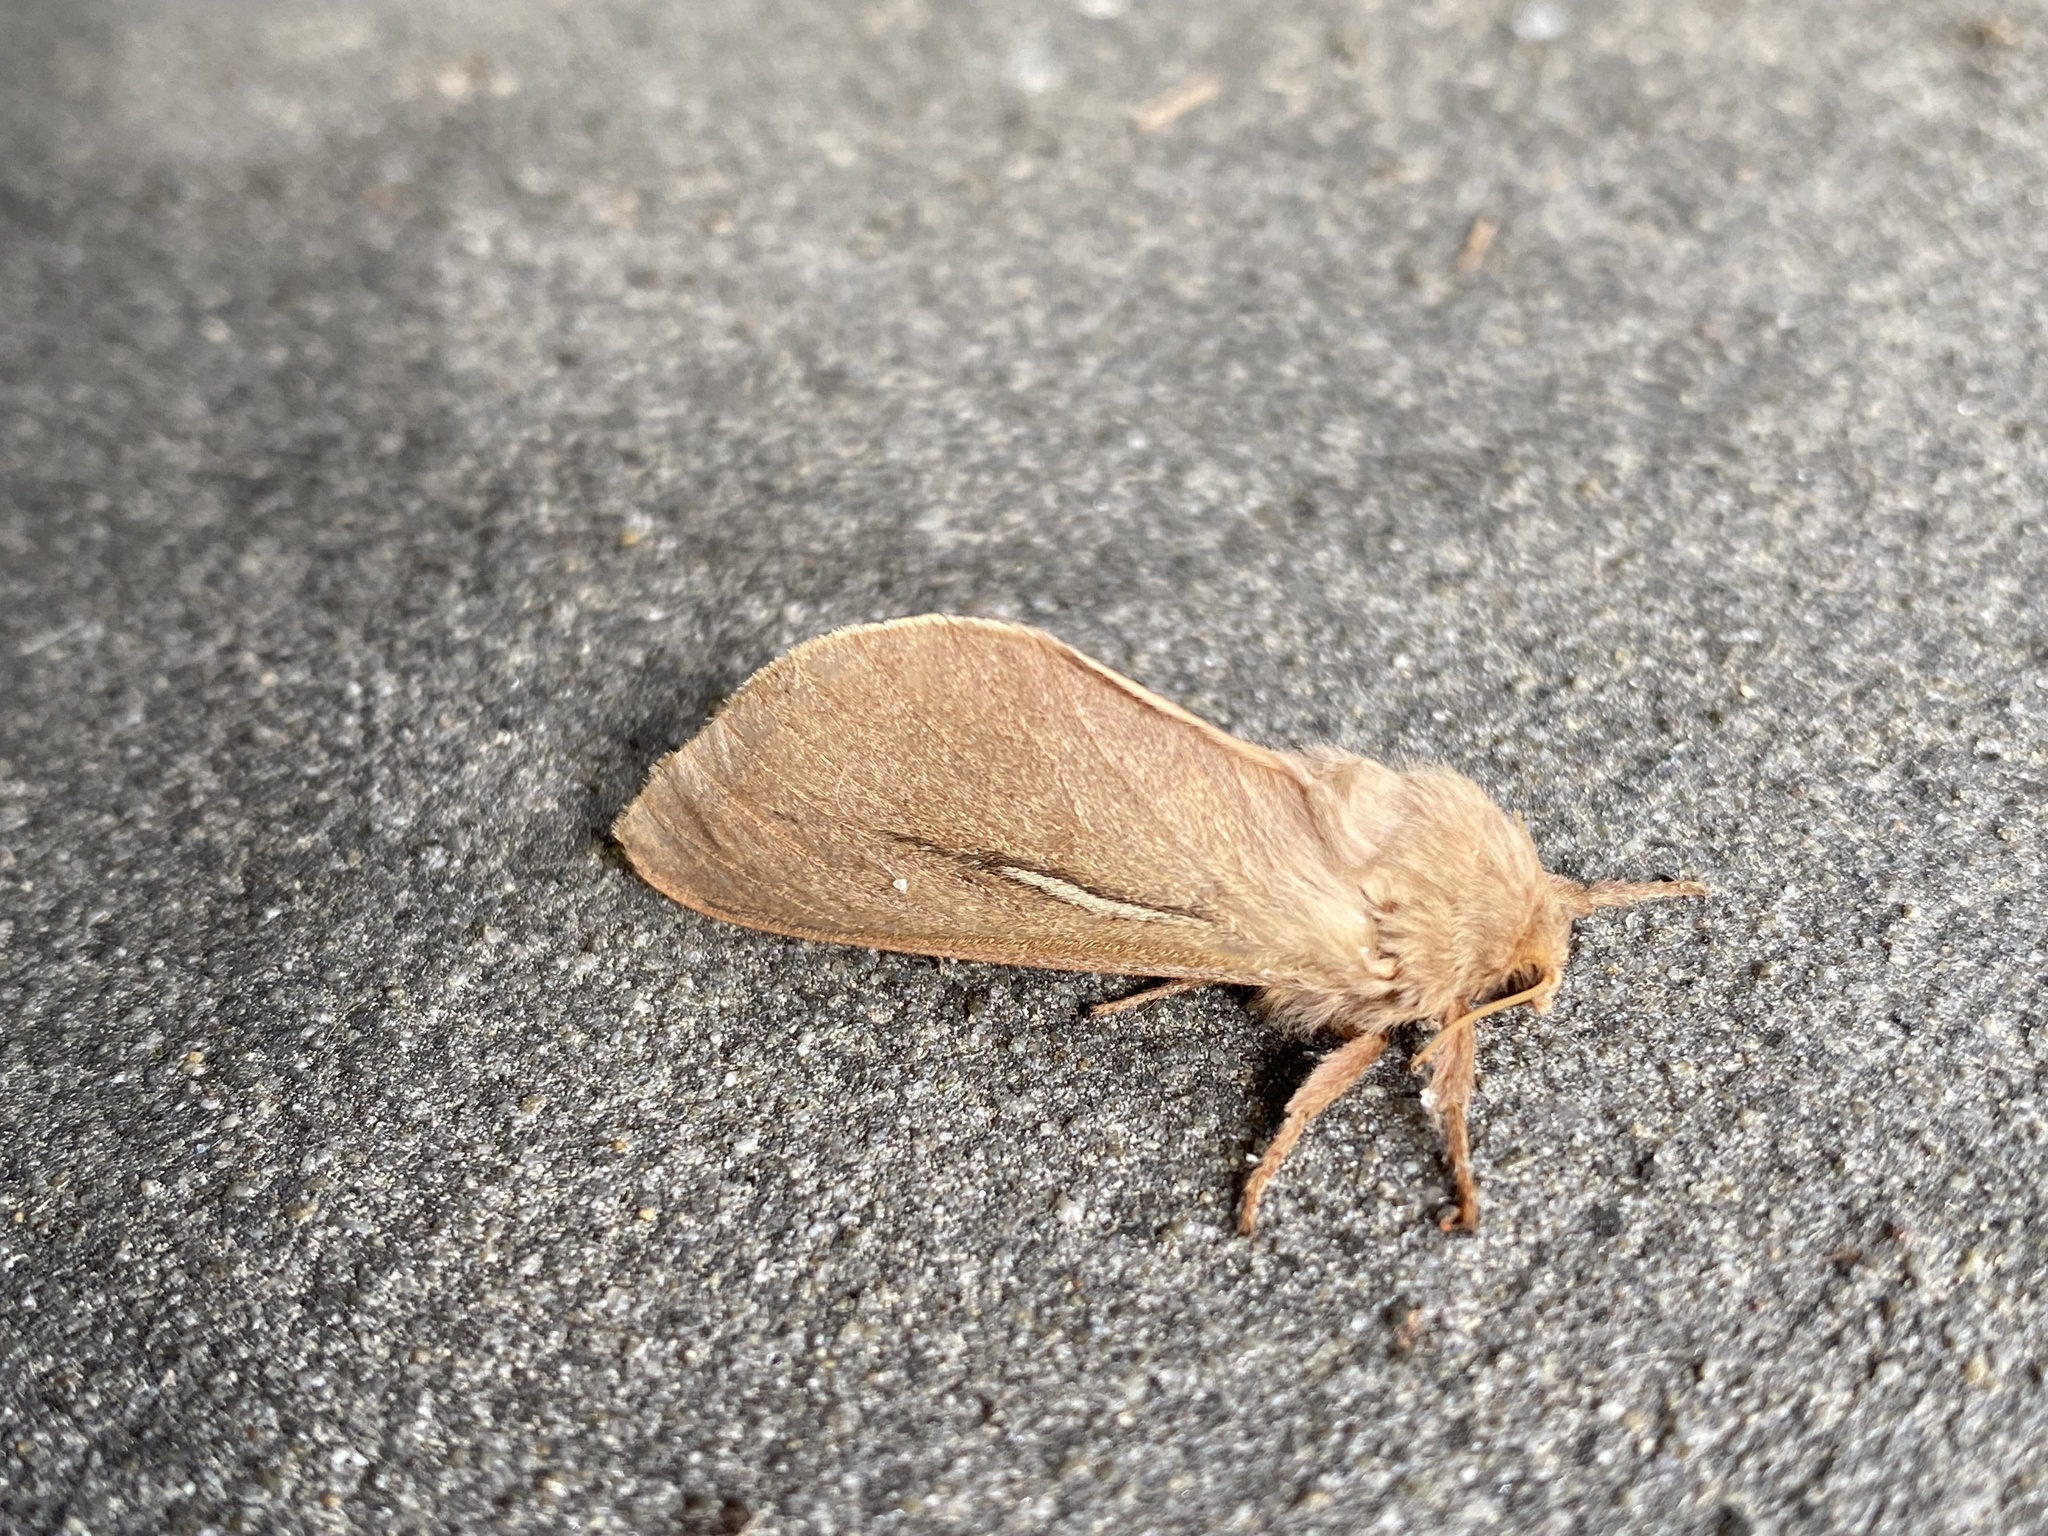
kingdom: Animalia
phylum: Arthropoda
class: Insecta
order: Lepidoptera
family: Hepialidae
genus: Wiseana
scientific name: Wiseana umbraculatus
